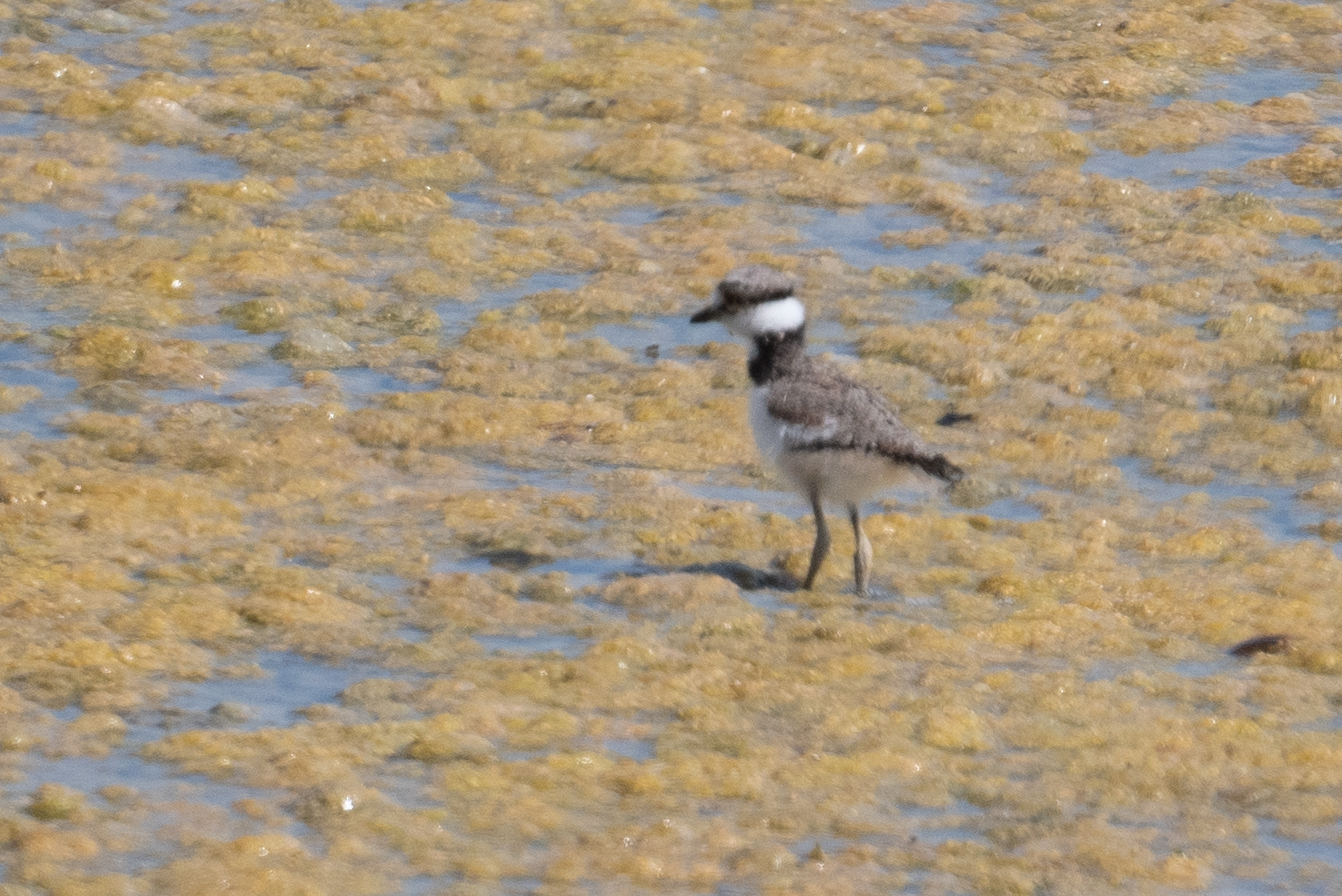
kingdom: Animalia
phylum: Chordata
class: Aves
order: Charadriiformes
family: Charadriidae
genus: Charadrius
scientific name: Charadrius vociferus
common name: Killdeer
